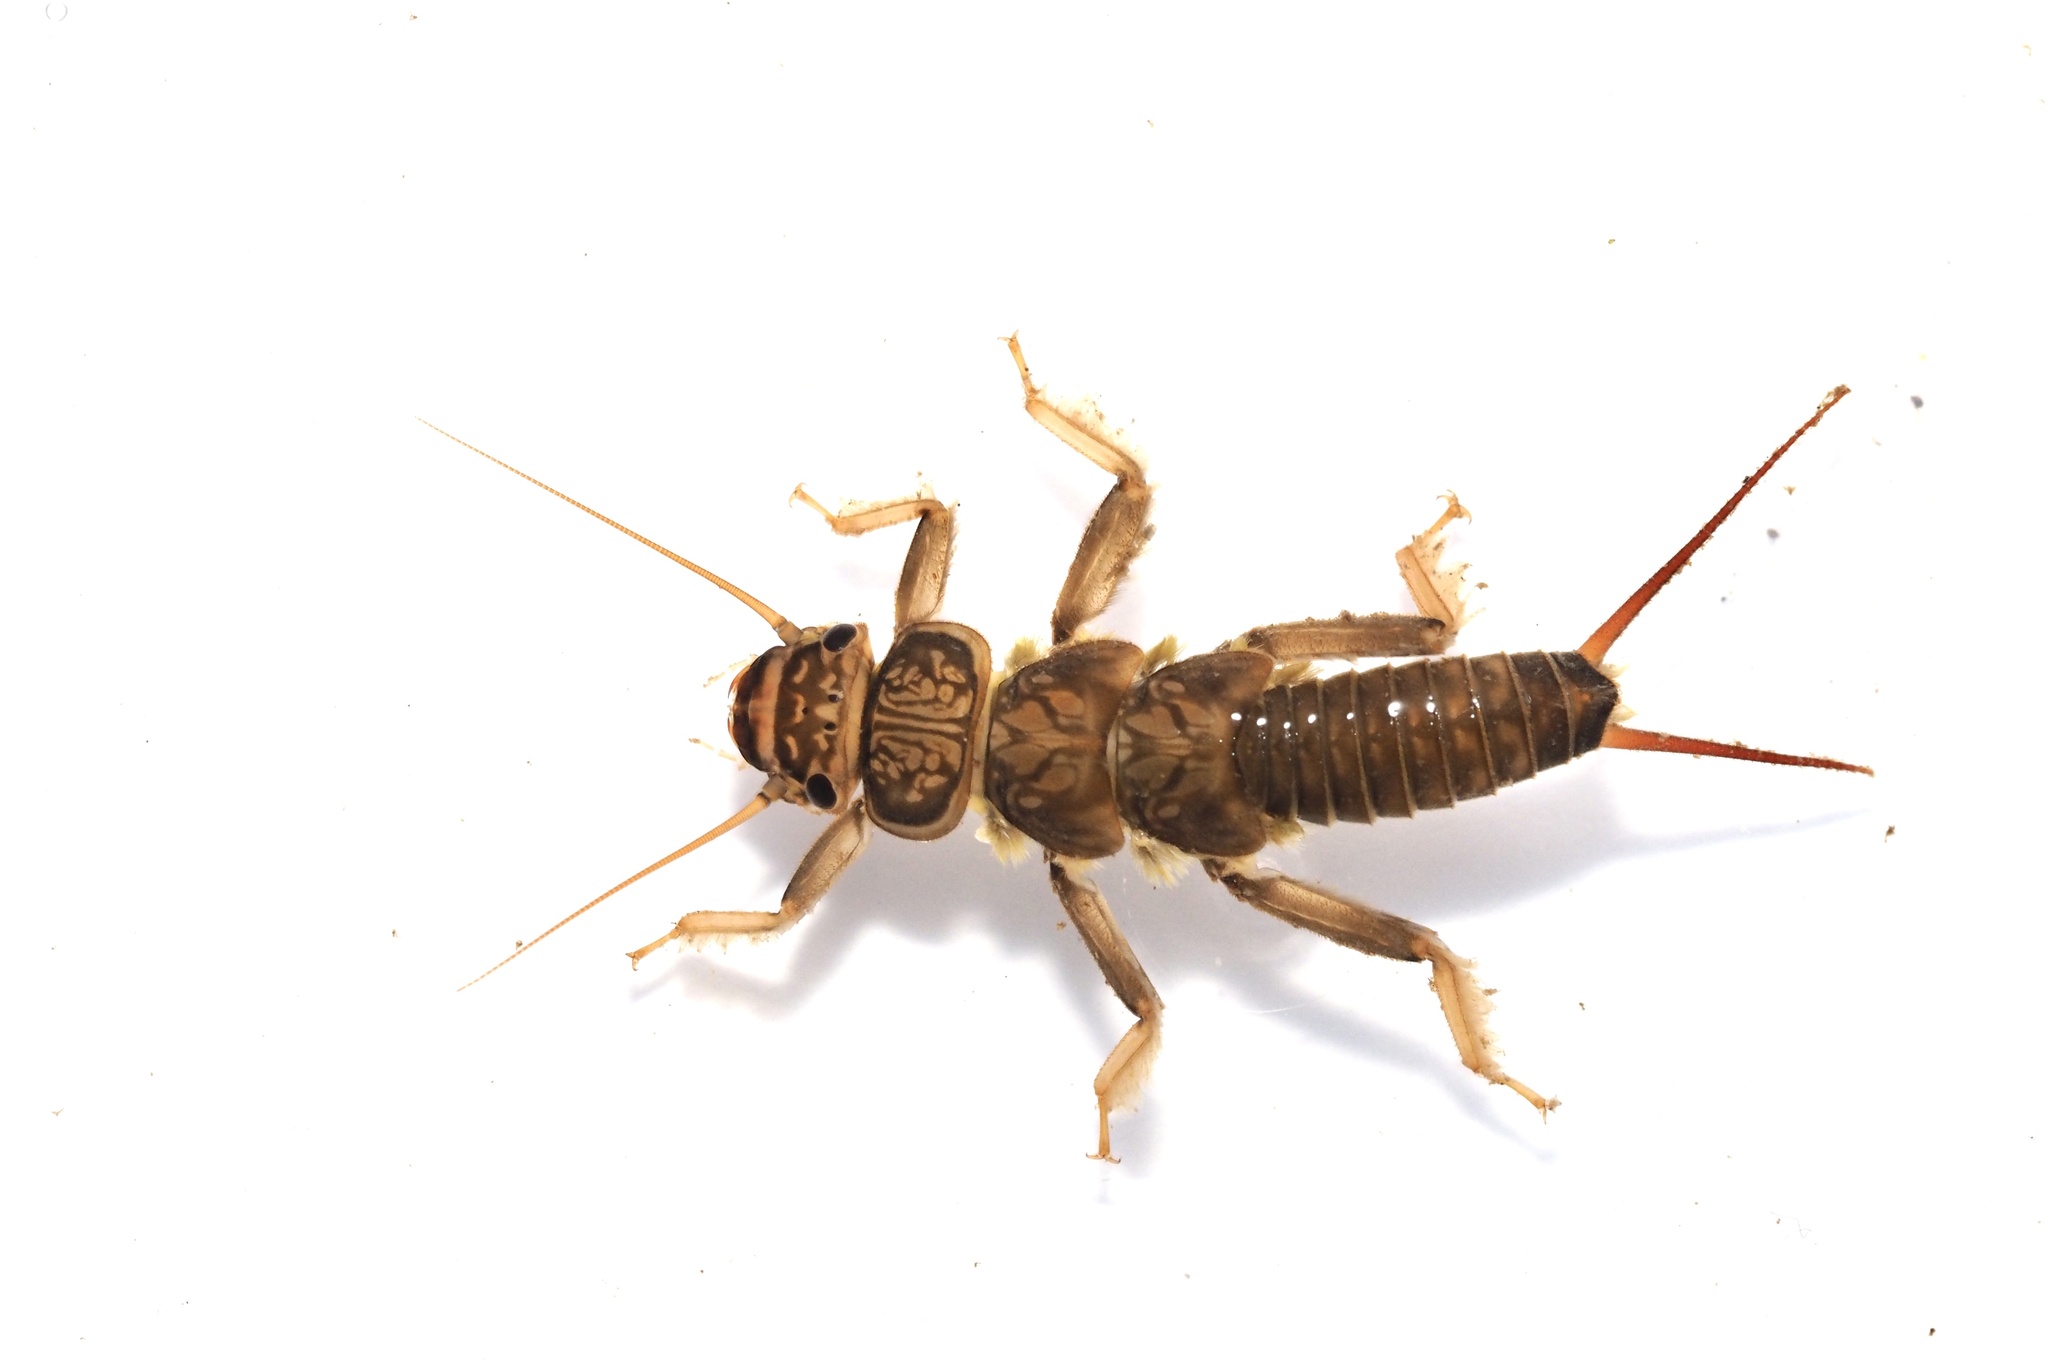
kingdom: Animalia
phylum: Arthropoda
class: Insecta
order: Plecoptera
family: Perlidae
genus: Oyamia
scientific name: Oyamia cryptomeria
